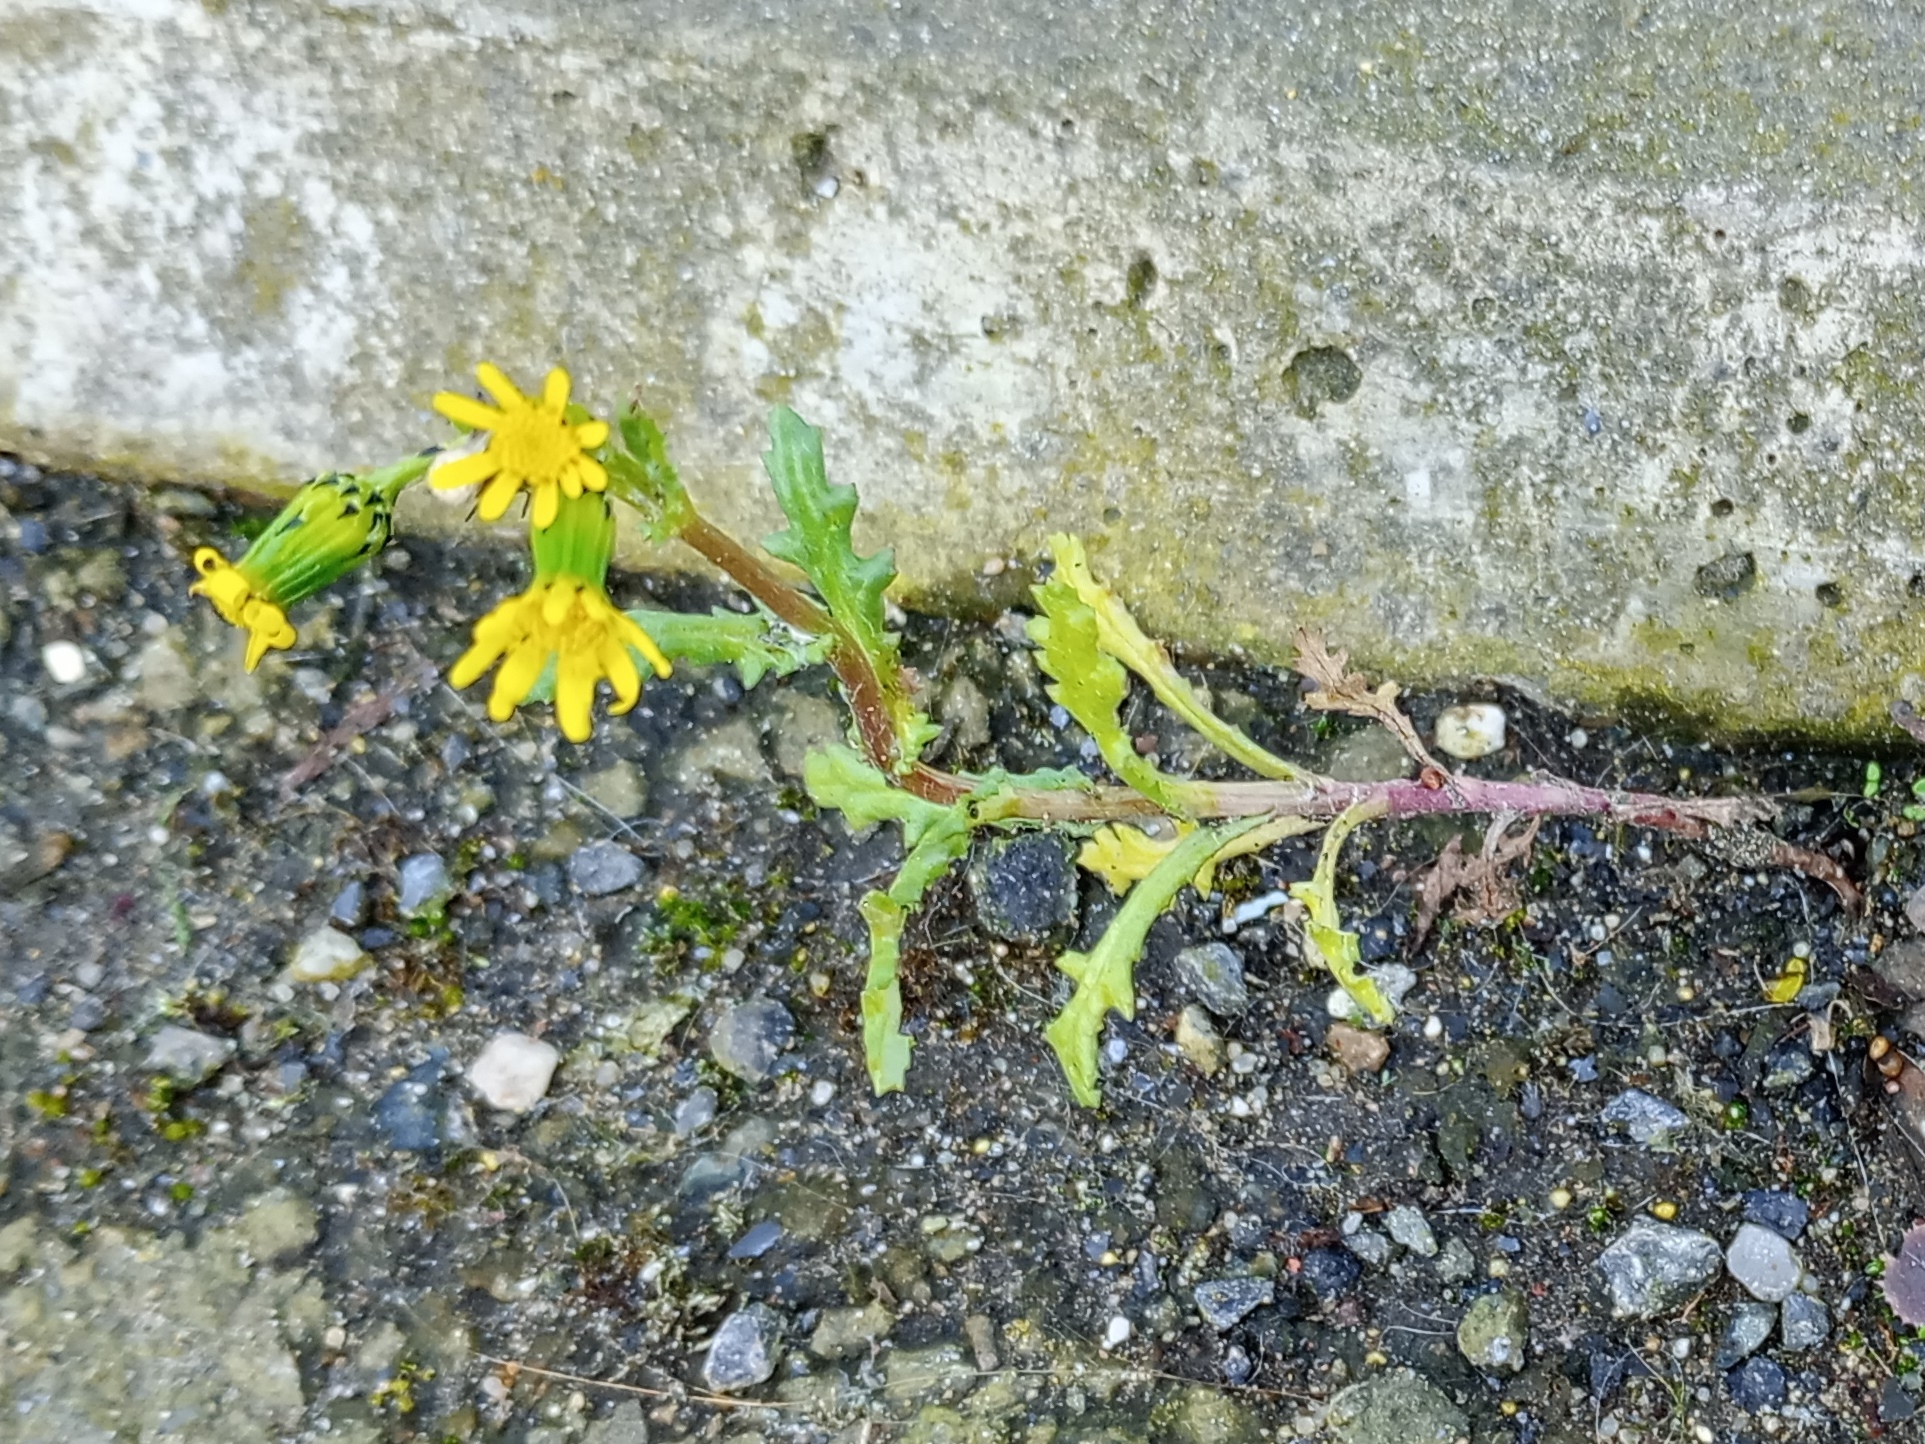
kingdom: Plantae
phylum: Tracheophyta
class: Magnoliopsida
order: Asterales
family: Asteraceae
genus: Senecio
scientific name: Senecio vulgaris
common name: Old-man-in-the-spring
